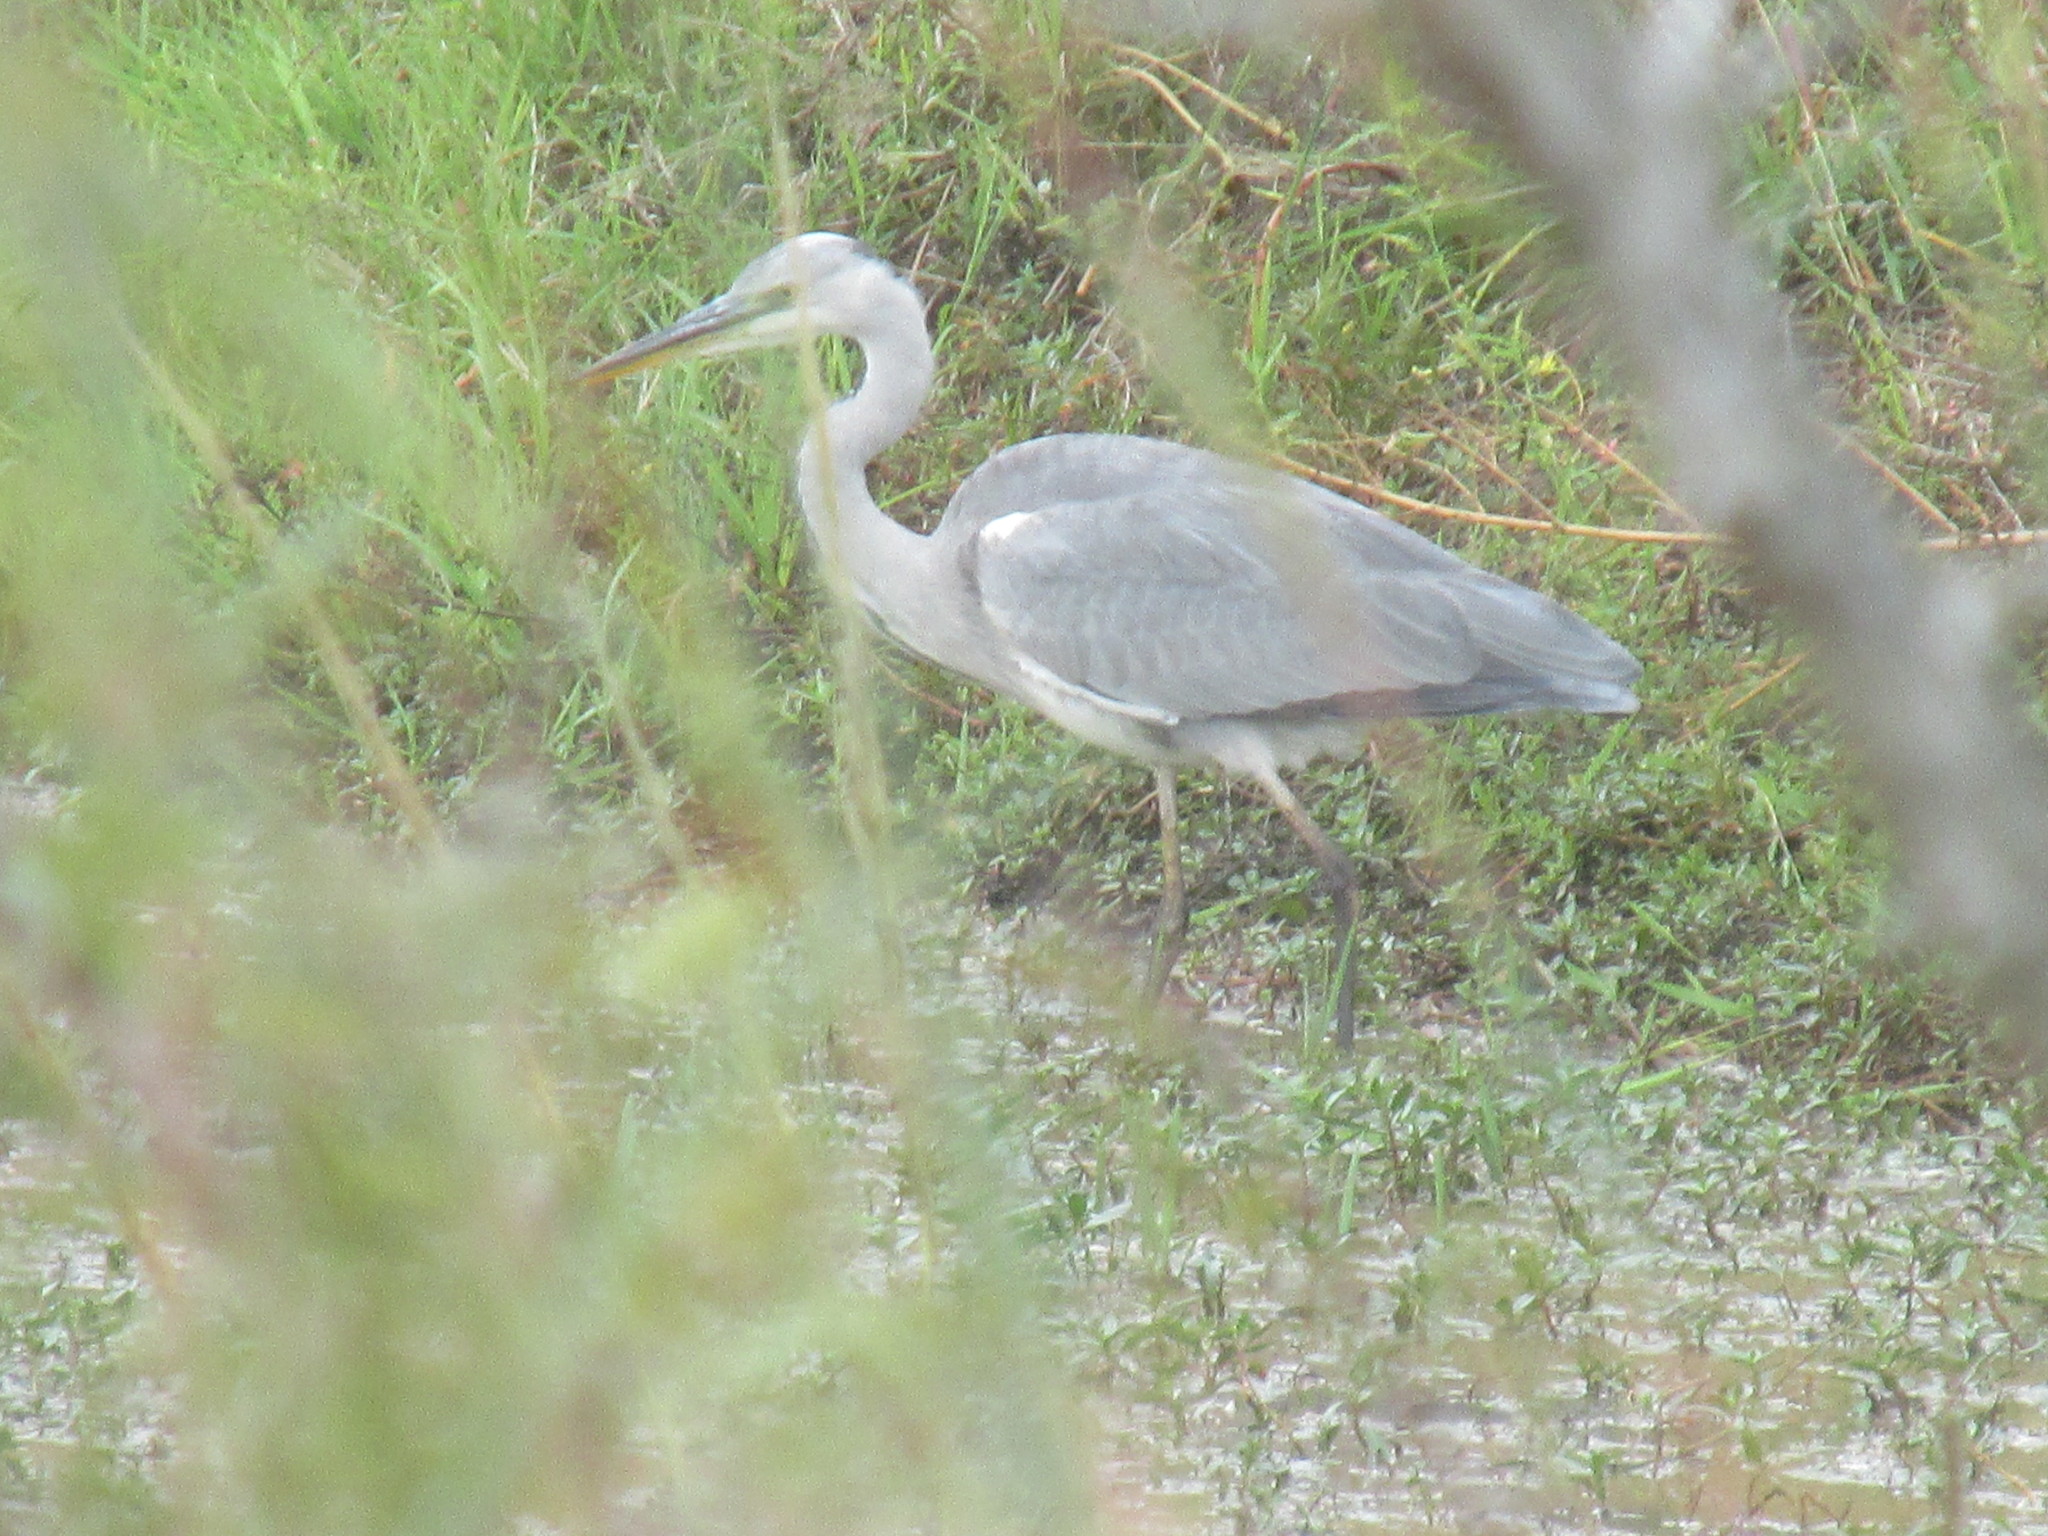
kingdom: Animalia
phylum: Chordata
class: Aves
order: Pelecaniformes
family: Ardeidae
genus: Ardea
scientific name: Ardea cinerea
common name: Grey heron
